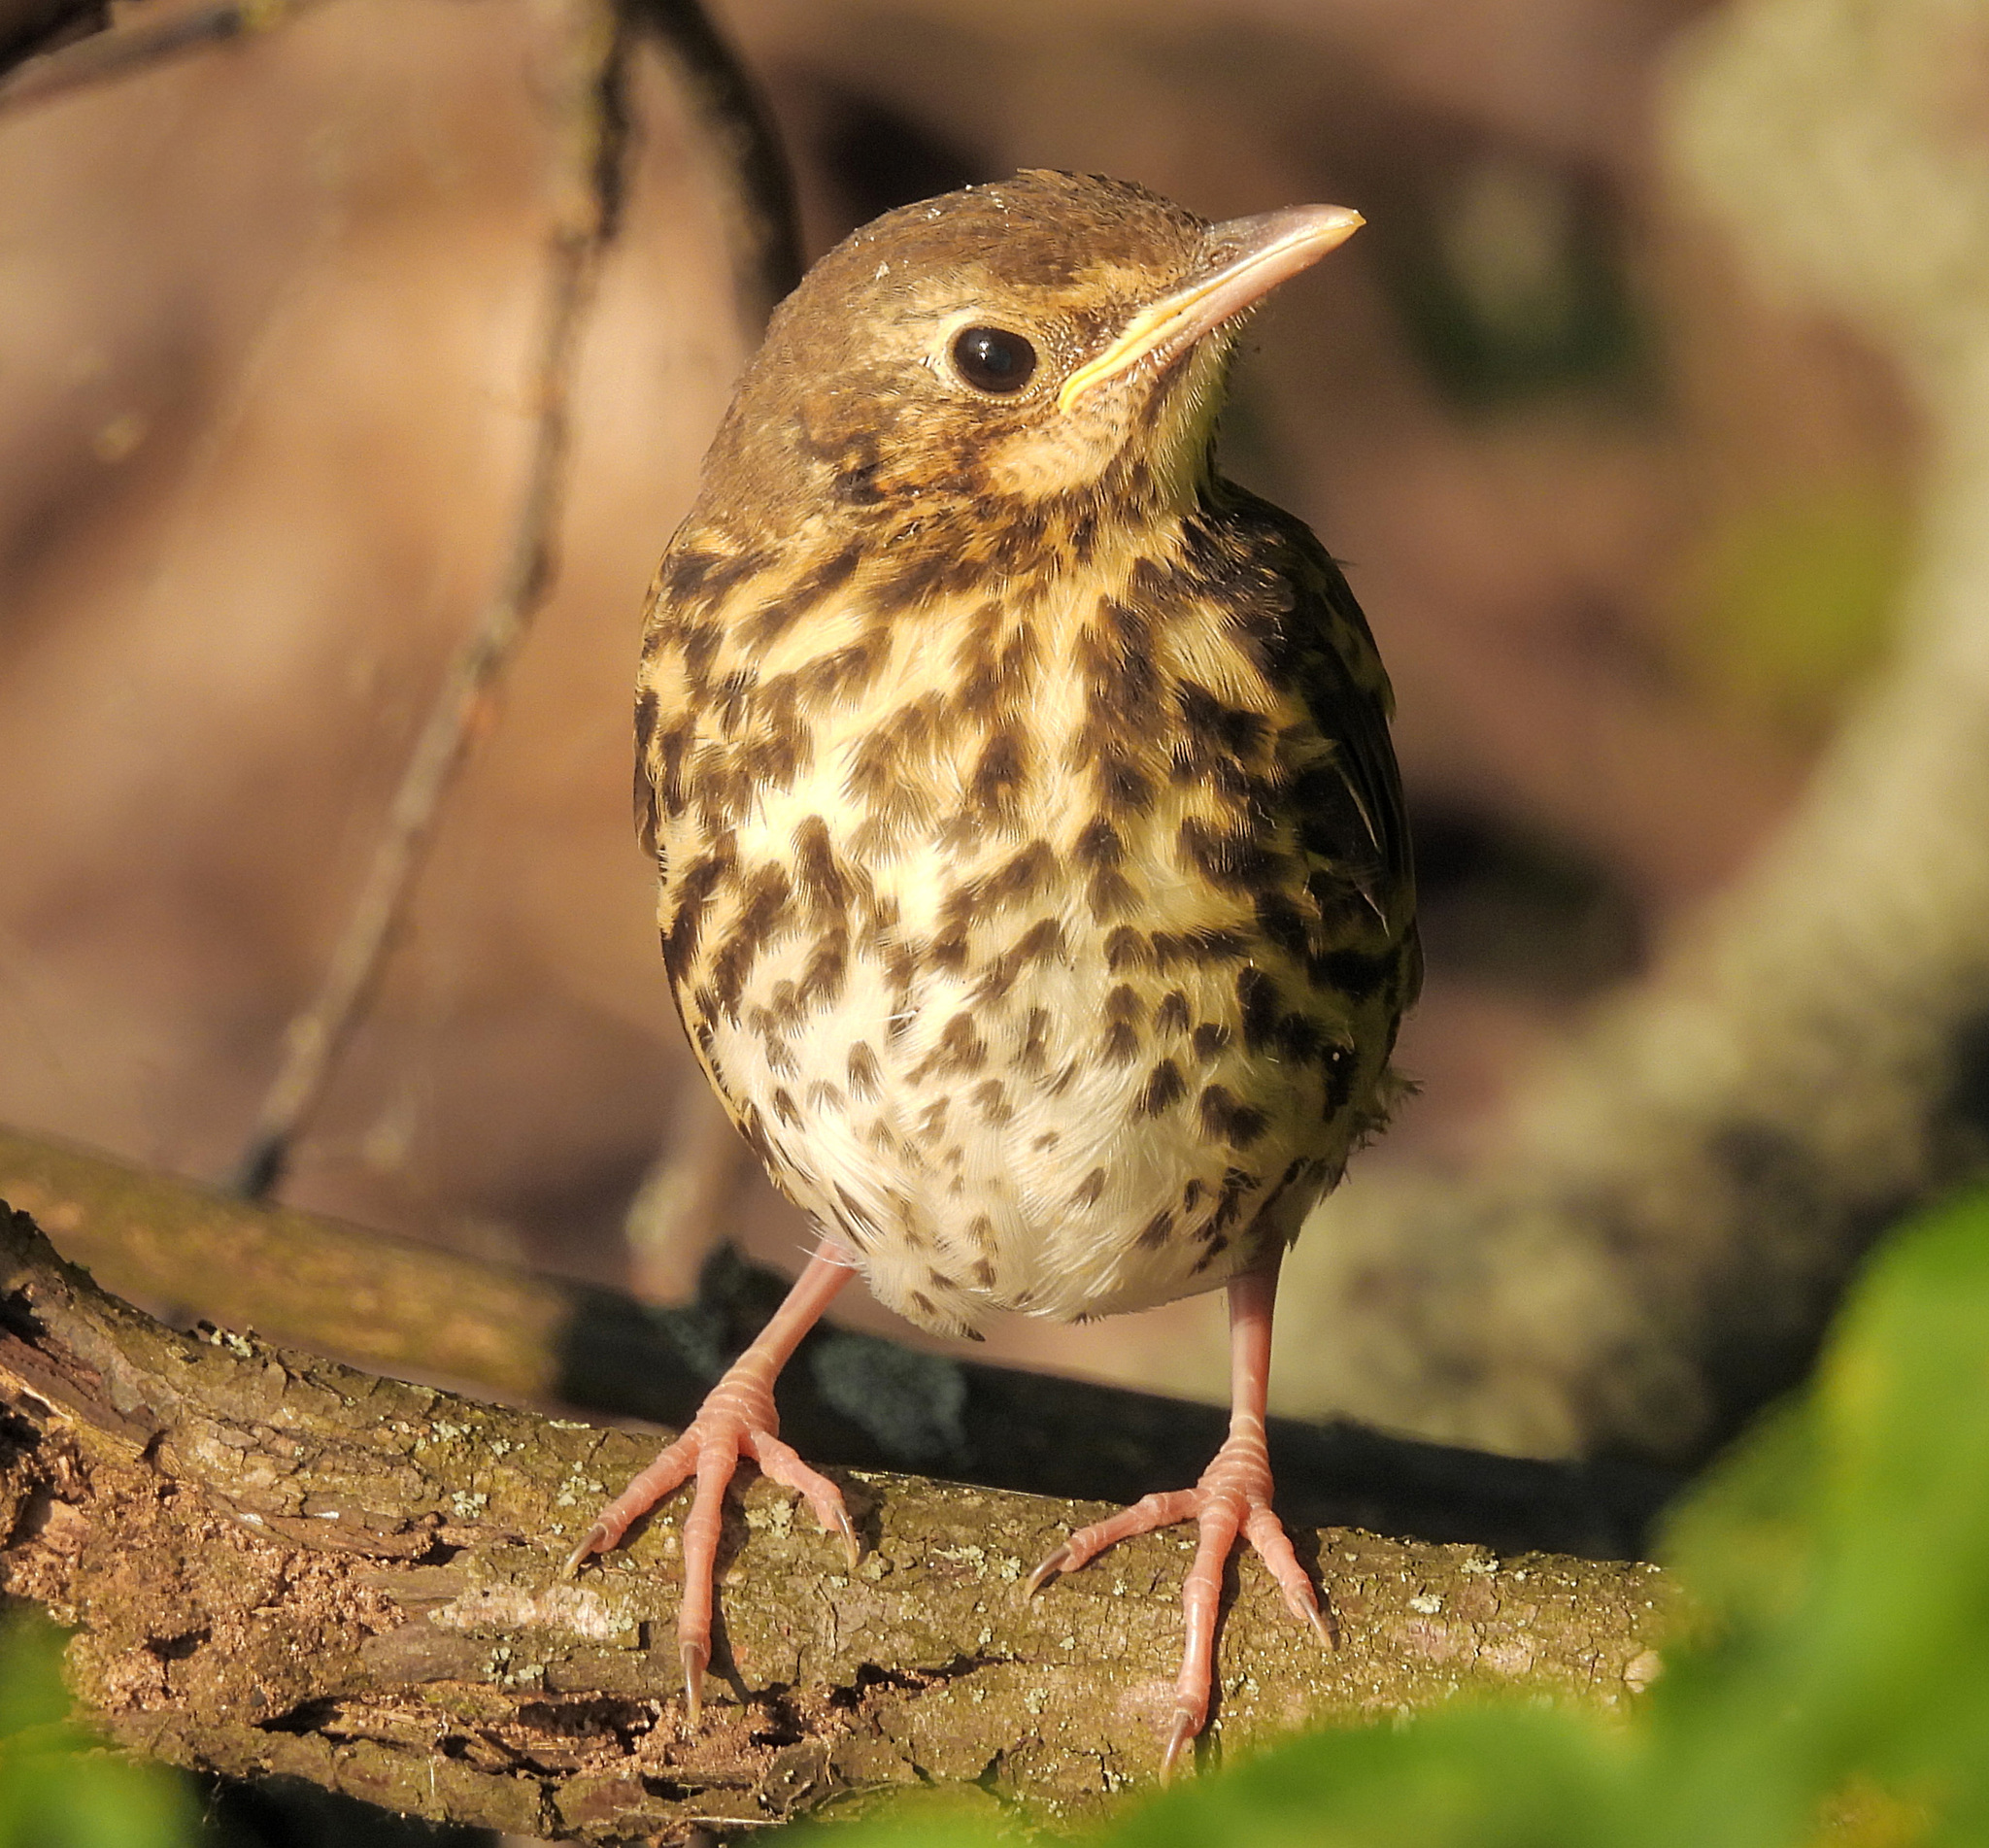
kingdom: Animalia
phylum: Chordata
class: Aves
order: Passeriformes
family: Turdidae
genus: Turdus
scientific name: Turdus philomelos
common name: Song thrush
